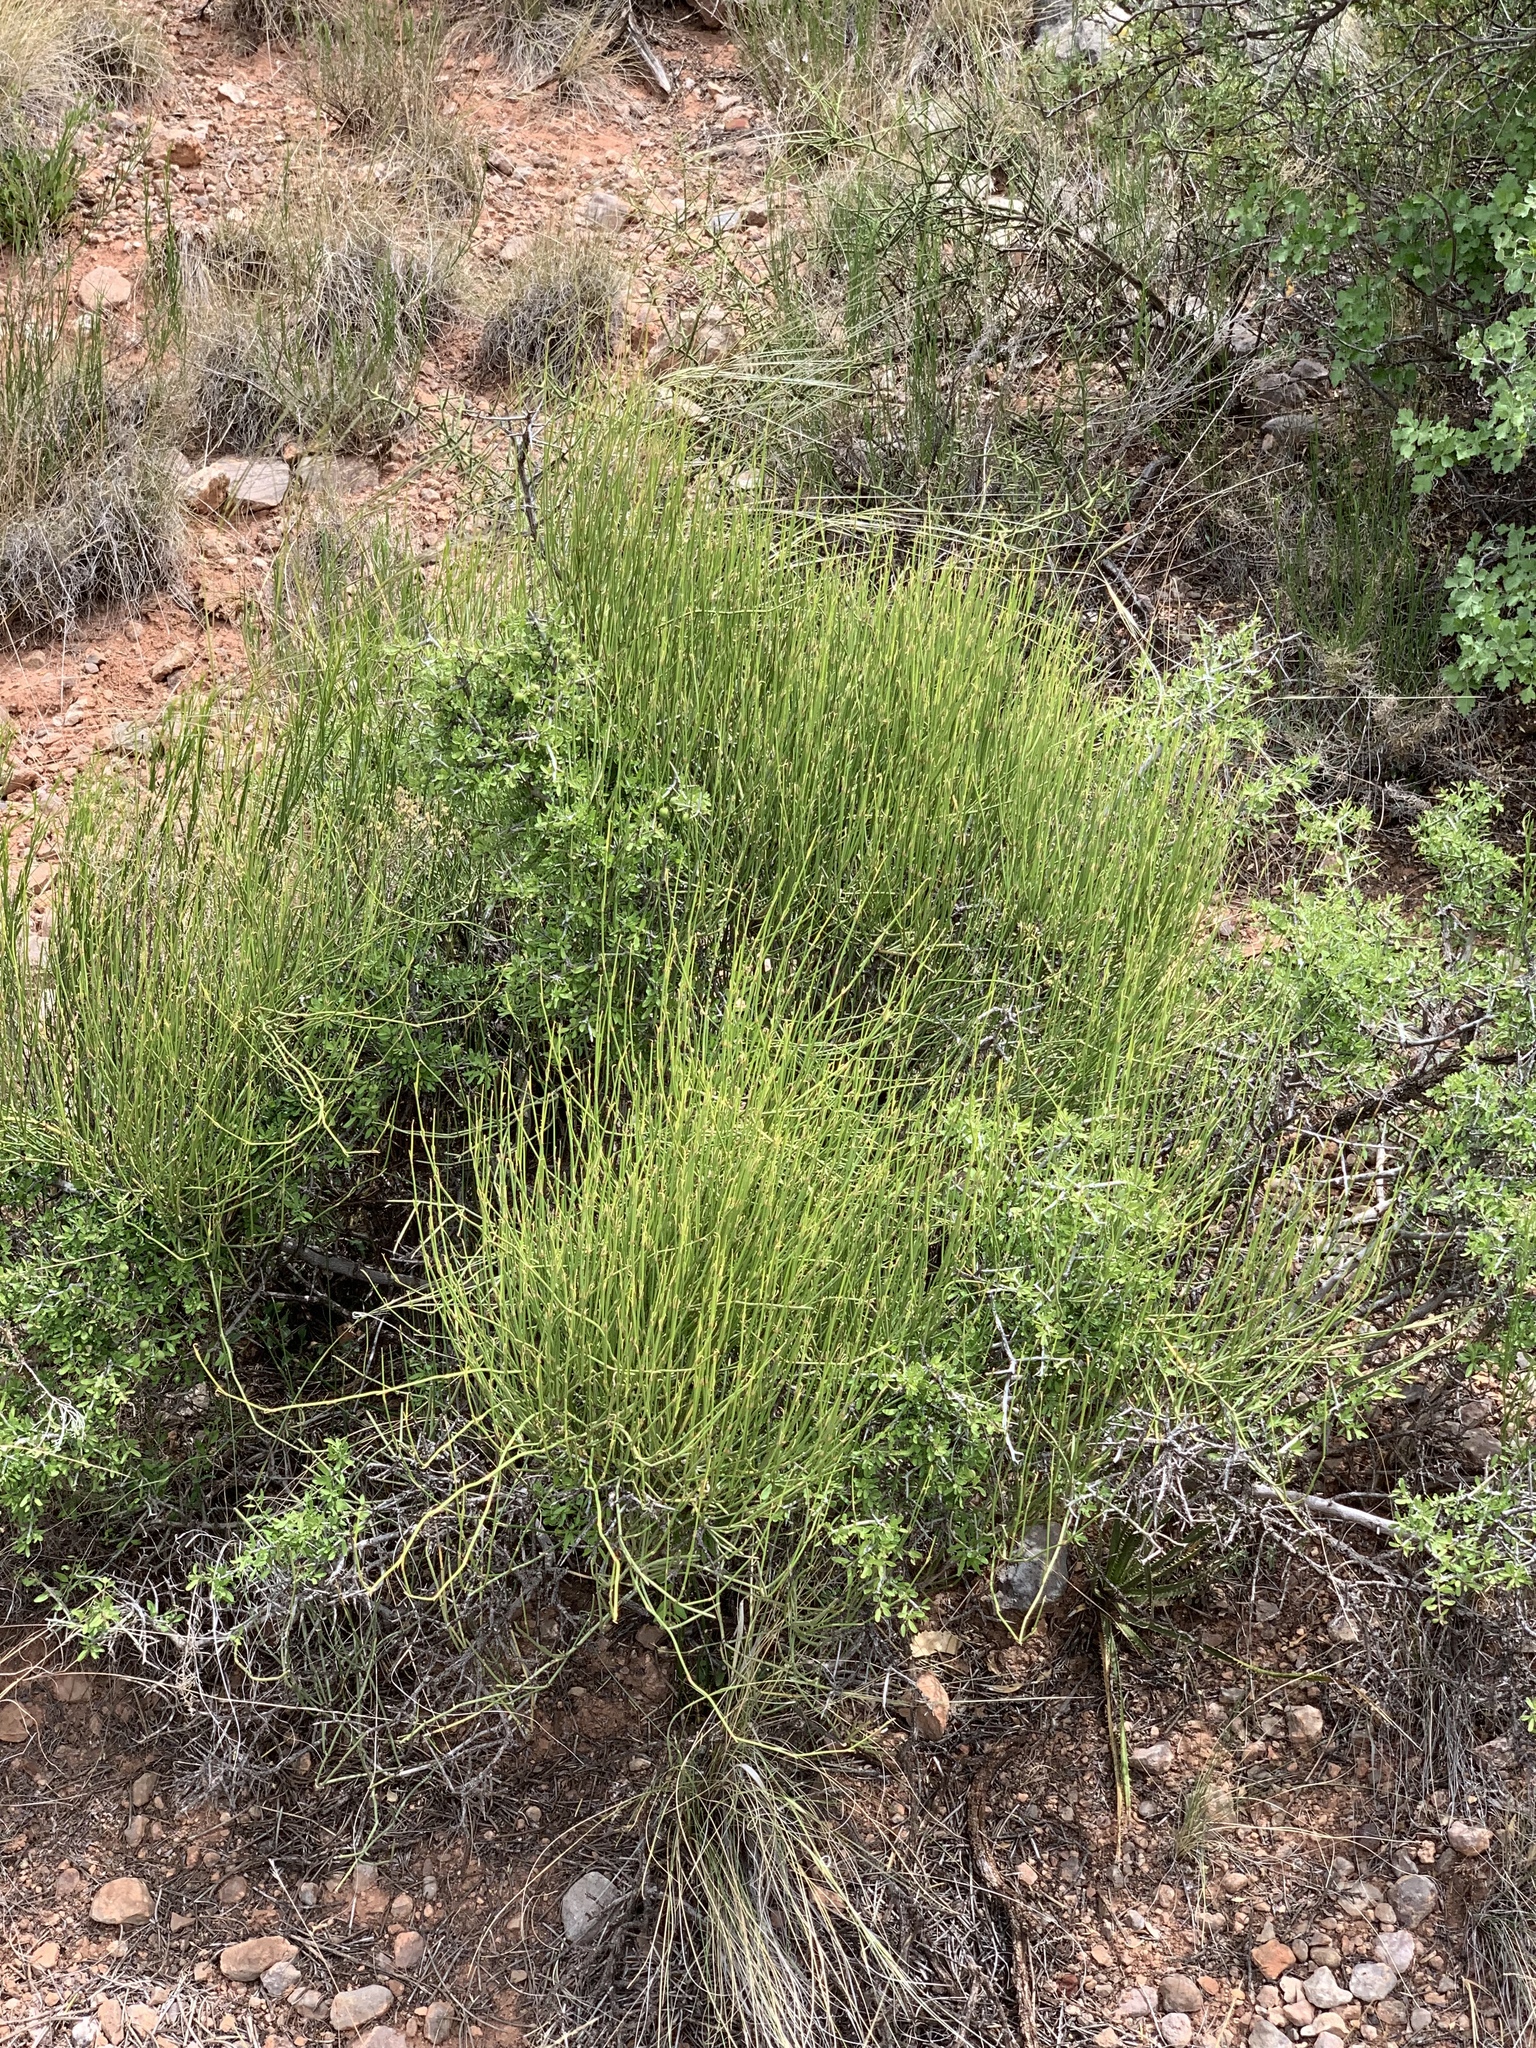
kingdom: Plantae
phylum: Tracheophyta
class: Gnetopsida
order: Ephedrales
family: Ephedraceae
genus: Ephedra
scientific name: Ephedra viridis
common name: Green ephedra
